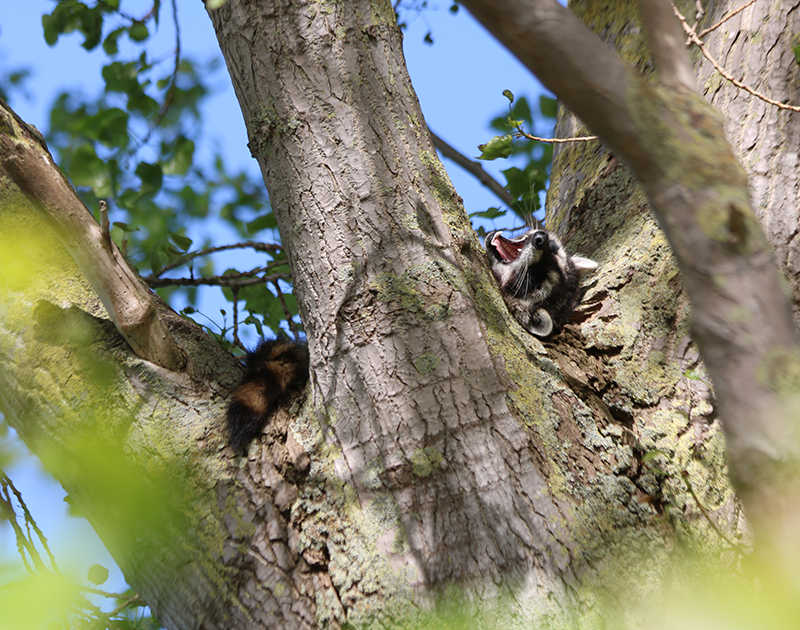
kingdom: Animalia
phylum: Chordata
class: Mammalia
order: Carnivora
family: Procyonidae
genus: Procyon
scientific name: Procyon lotor
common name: Raccoon
